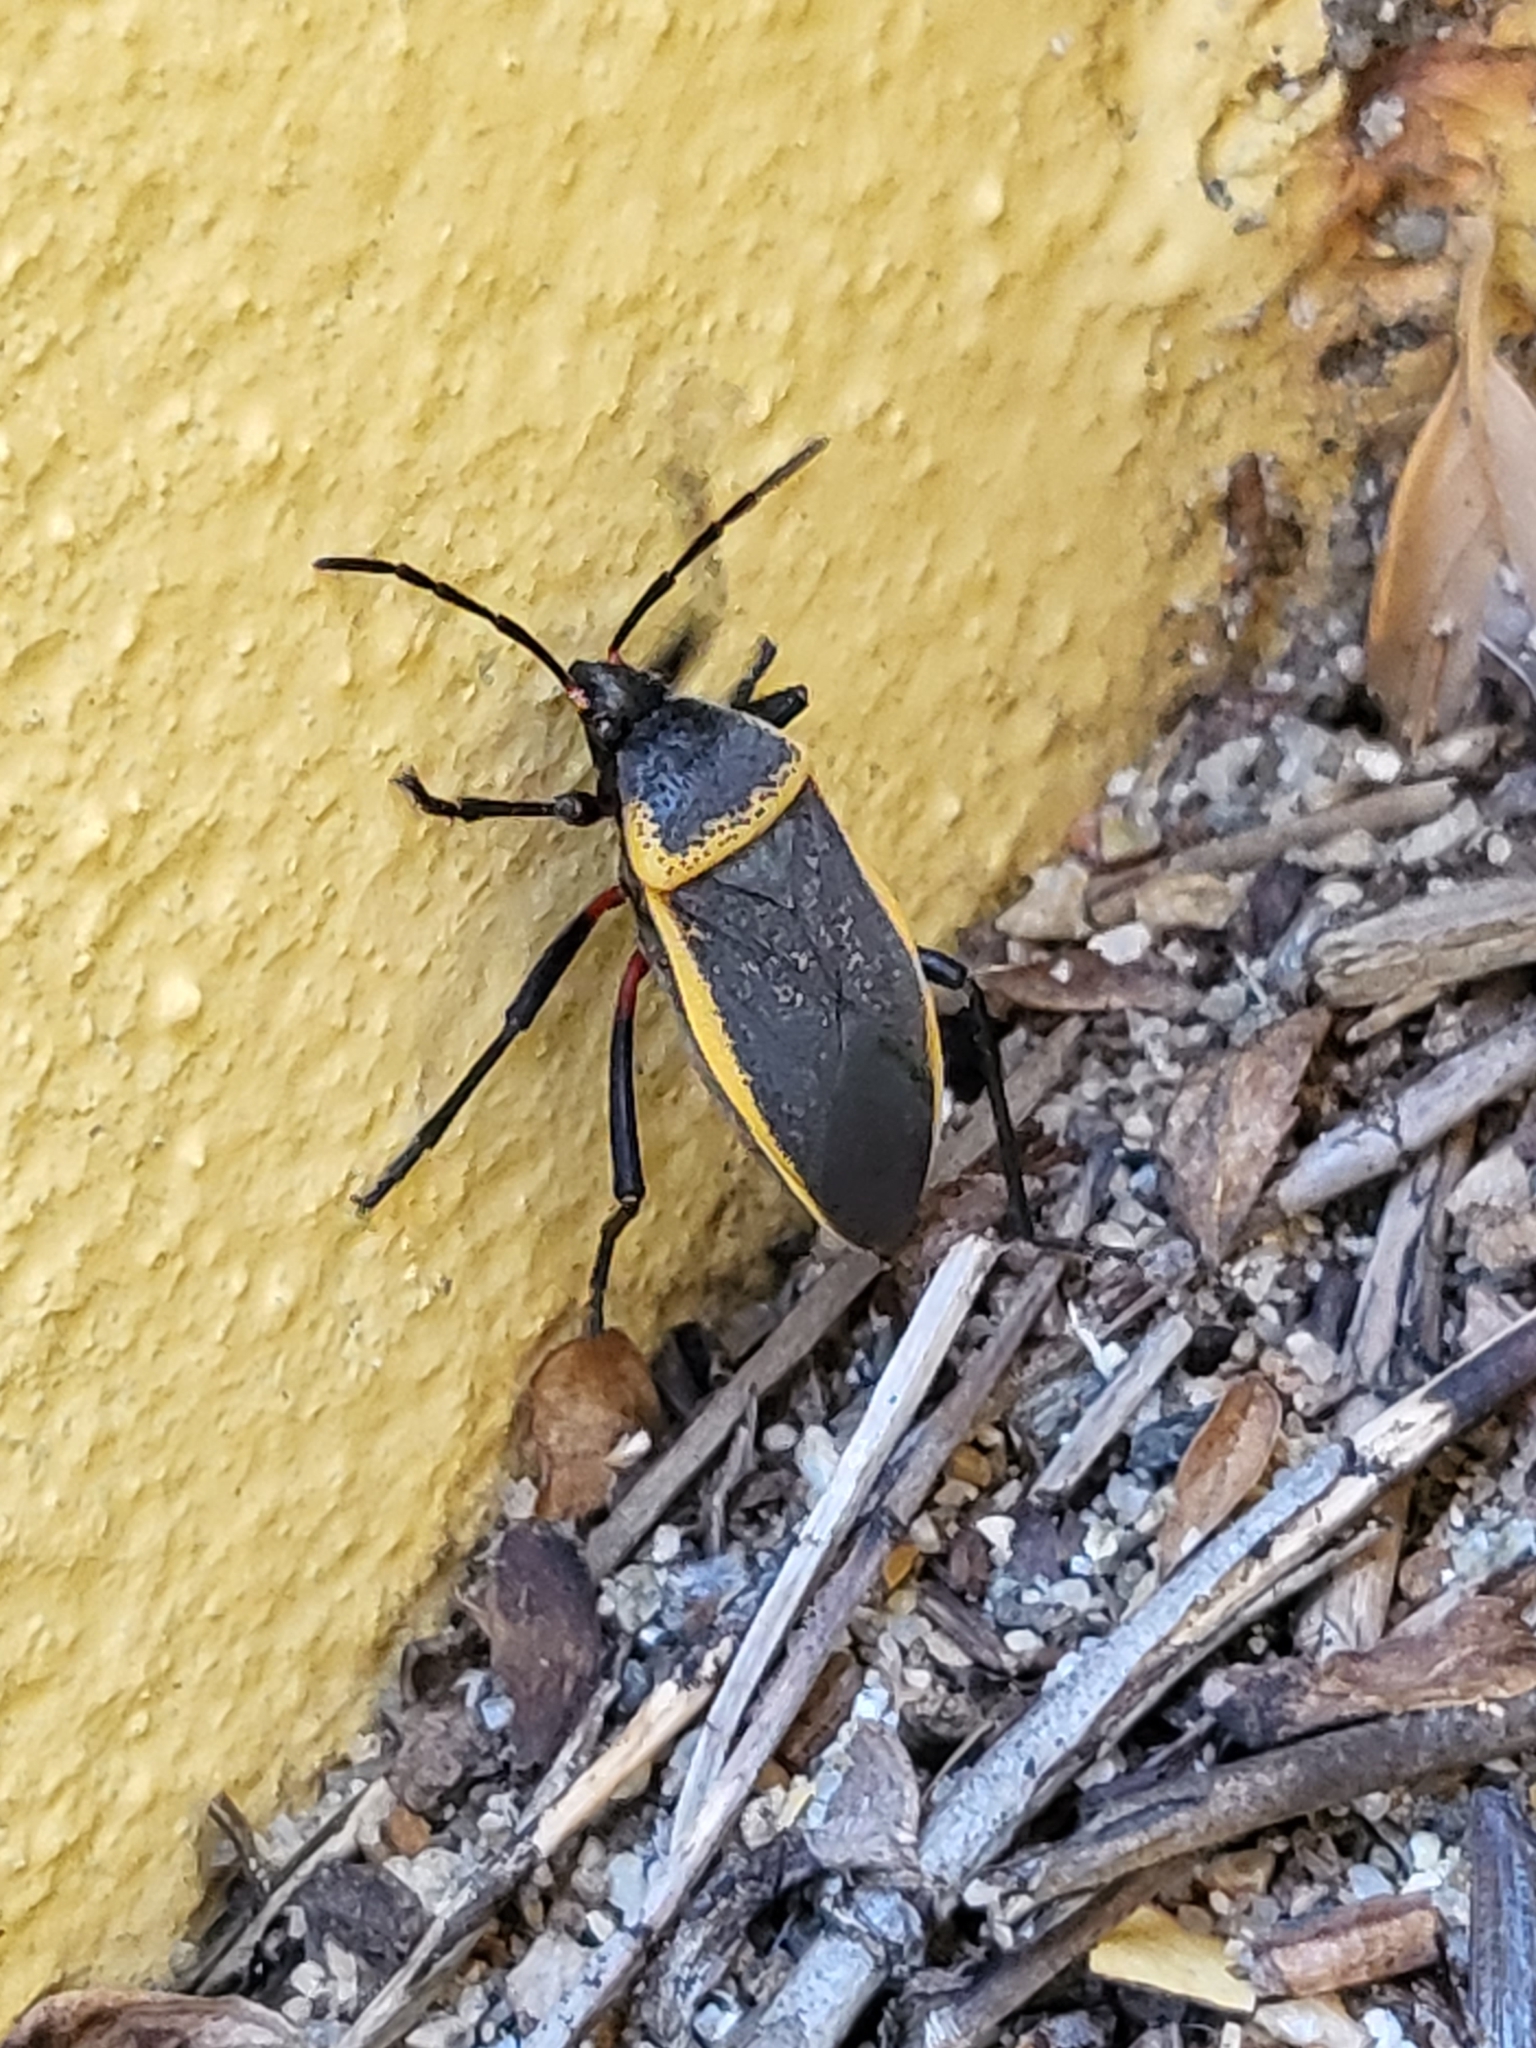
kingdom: Animalia
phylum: Arthropoda
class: Insecta
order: Hemiptera
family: Largidae
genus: Largus
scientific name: Largus californicus
